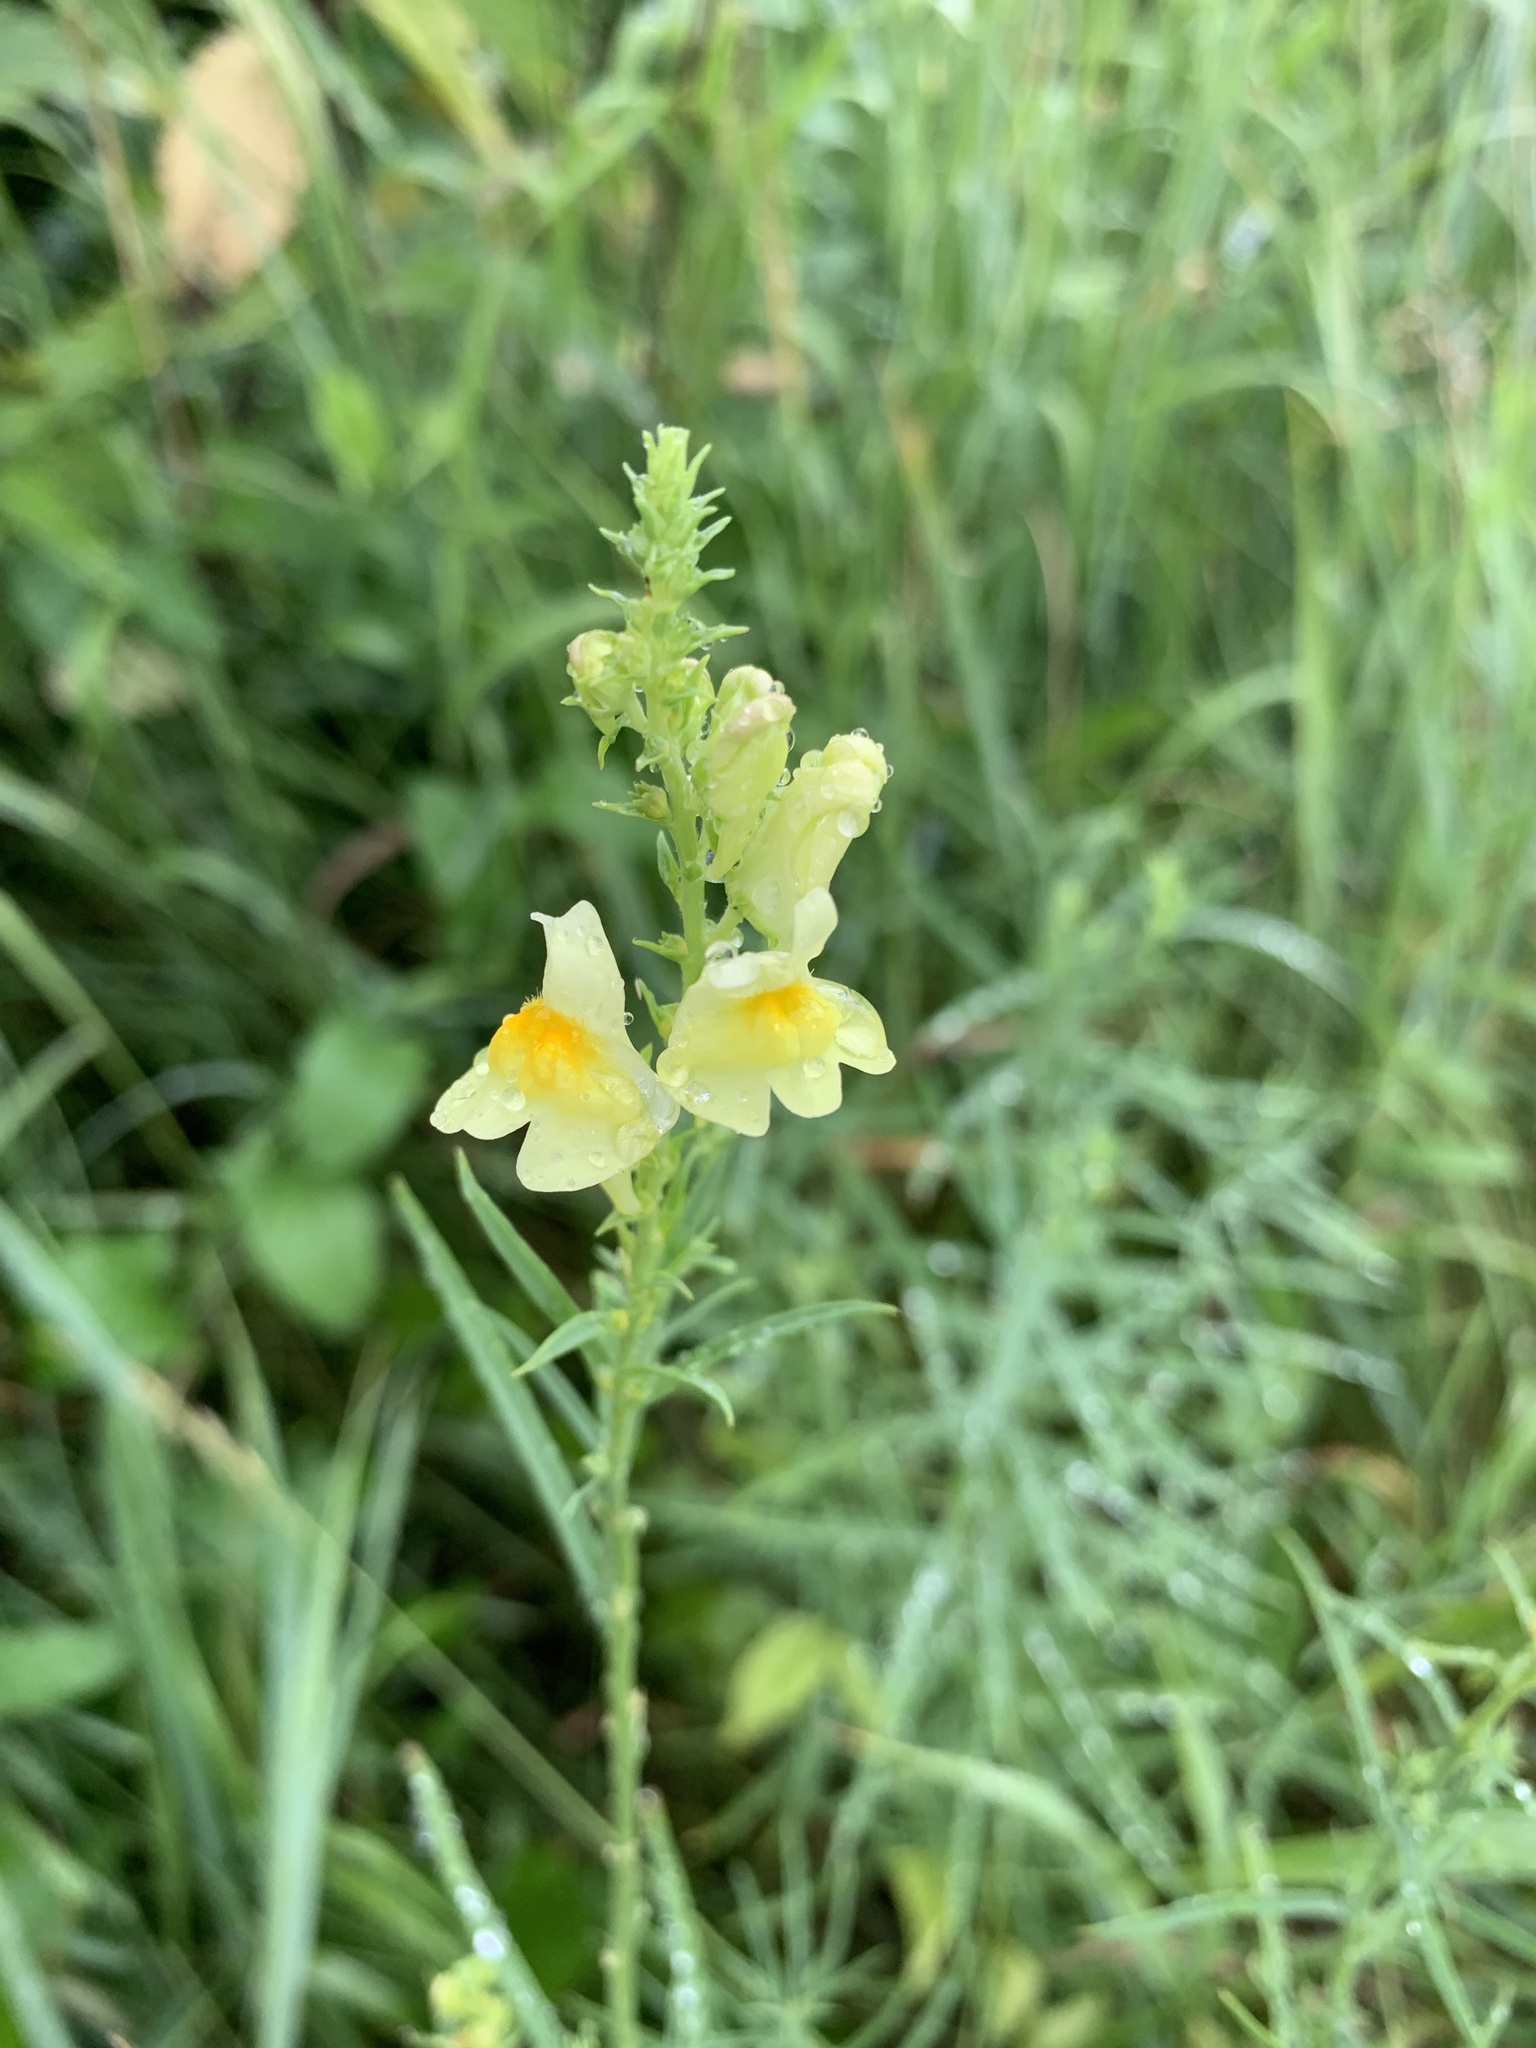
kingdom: Plantae
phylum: Tracheophyta
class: Magnoliopsida
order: Lamiales
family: Plantaginaceae
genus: Linaria
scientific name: Linaria vulgaris
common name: Butter and eggs
